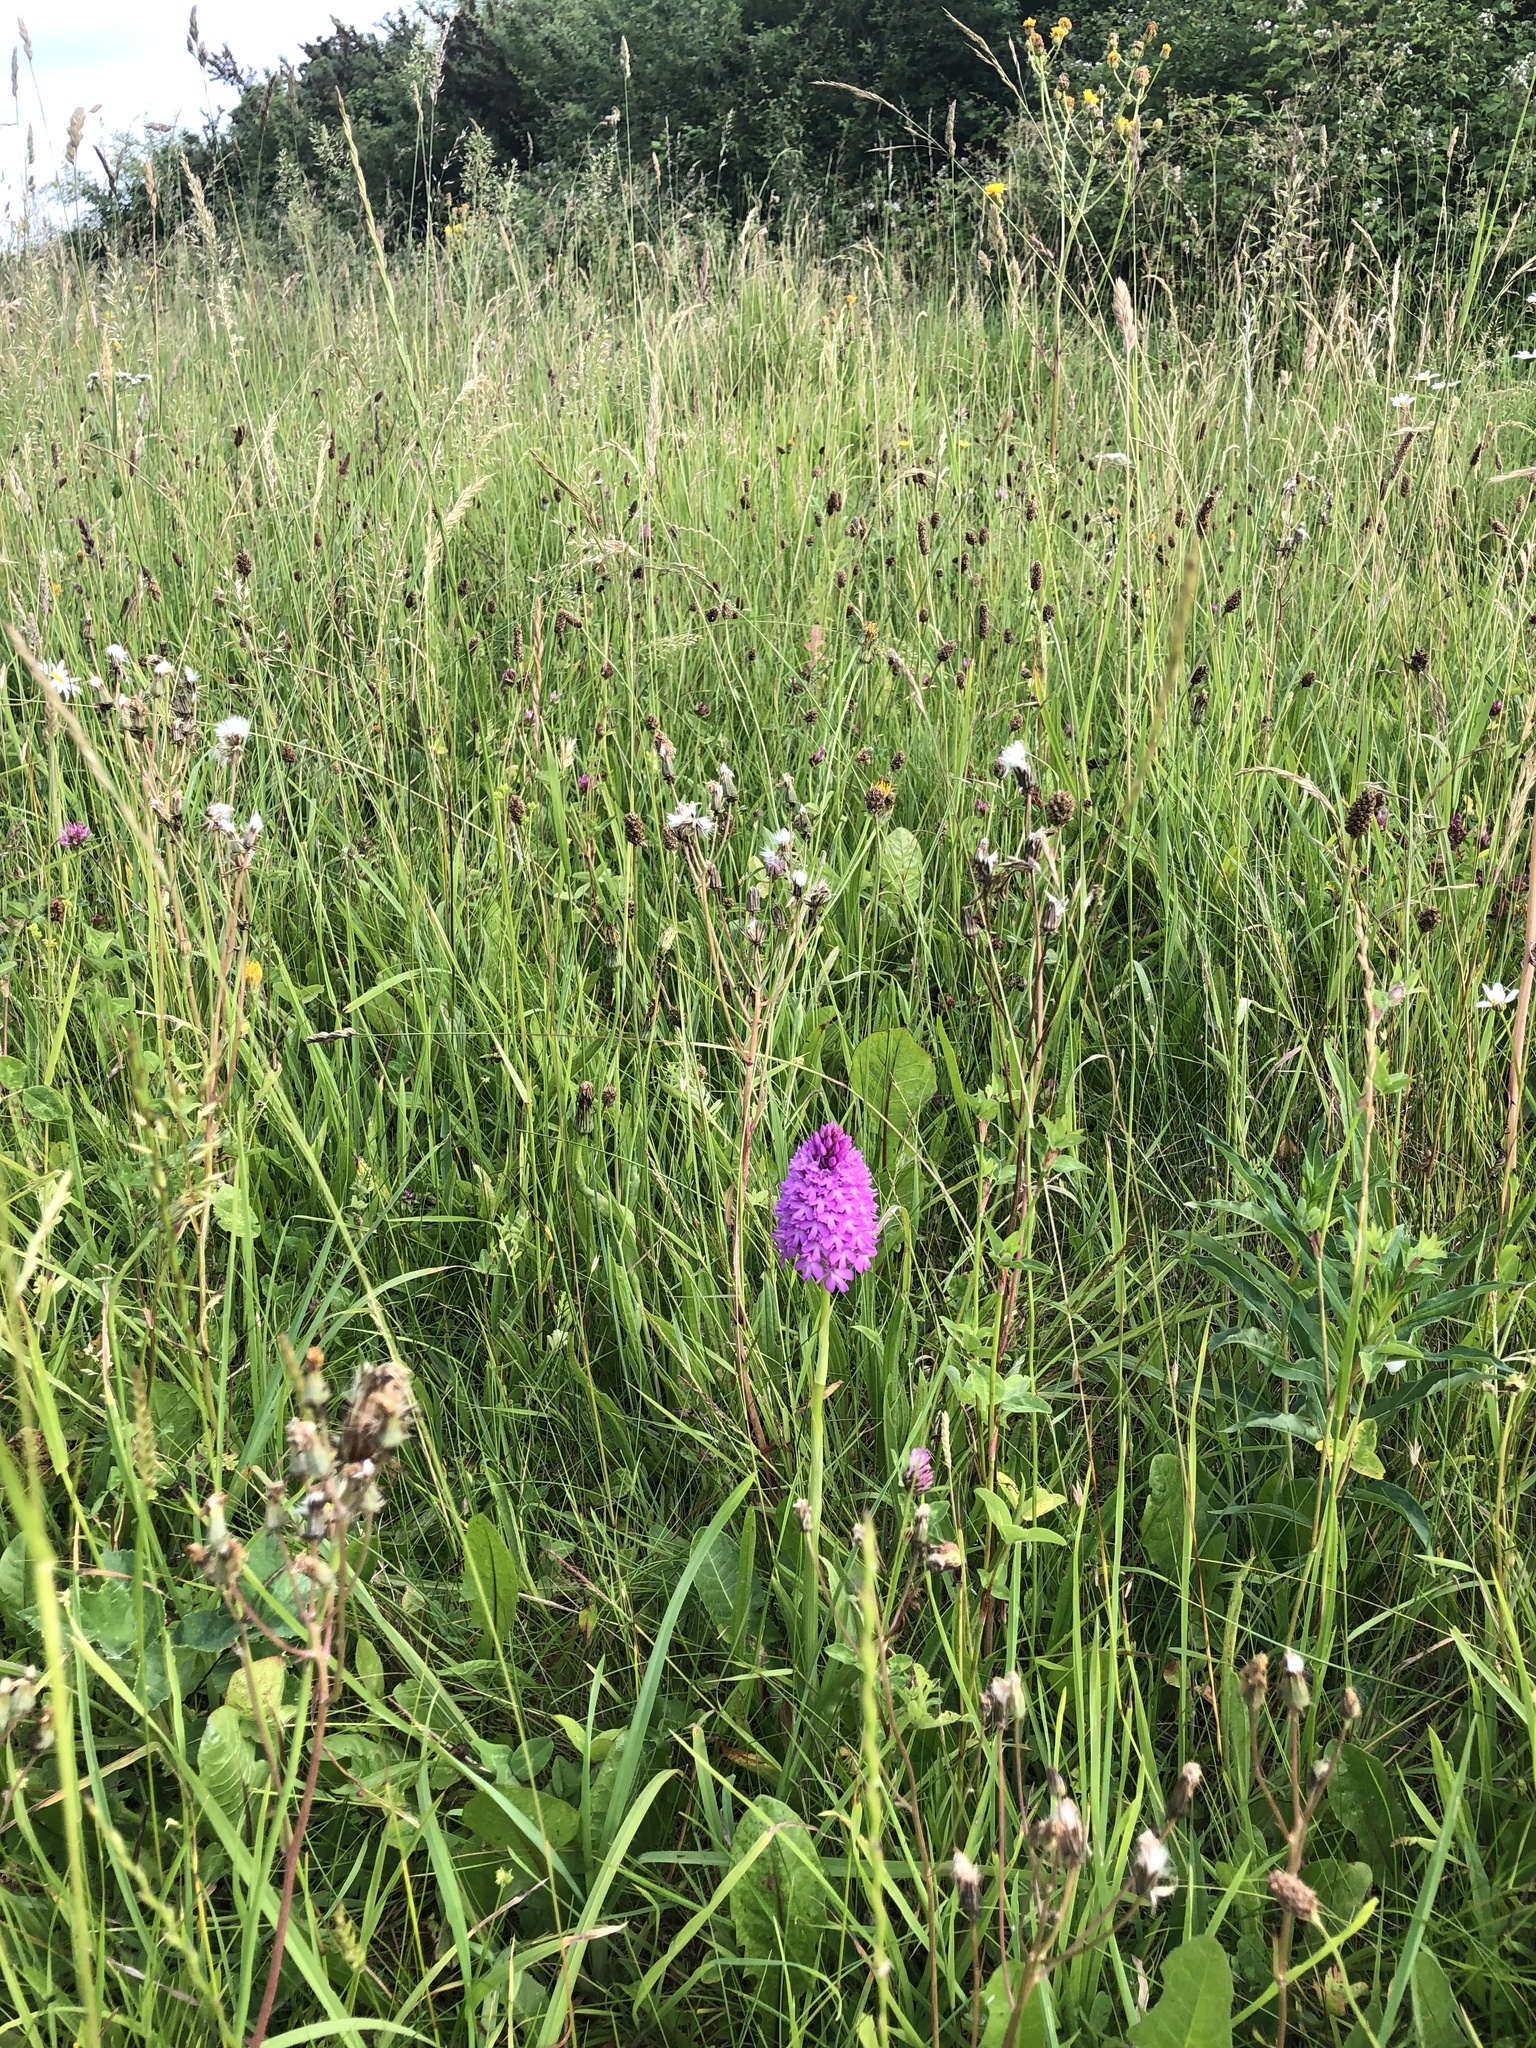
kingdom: Plantae
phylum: Tracheophyta
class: Liliopsida
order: Asparagales
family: Orchidaceae
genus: Anacamptis
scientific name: Anacamptis pyramidalis
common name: Pyramidal orchid
